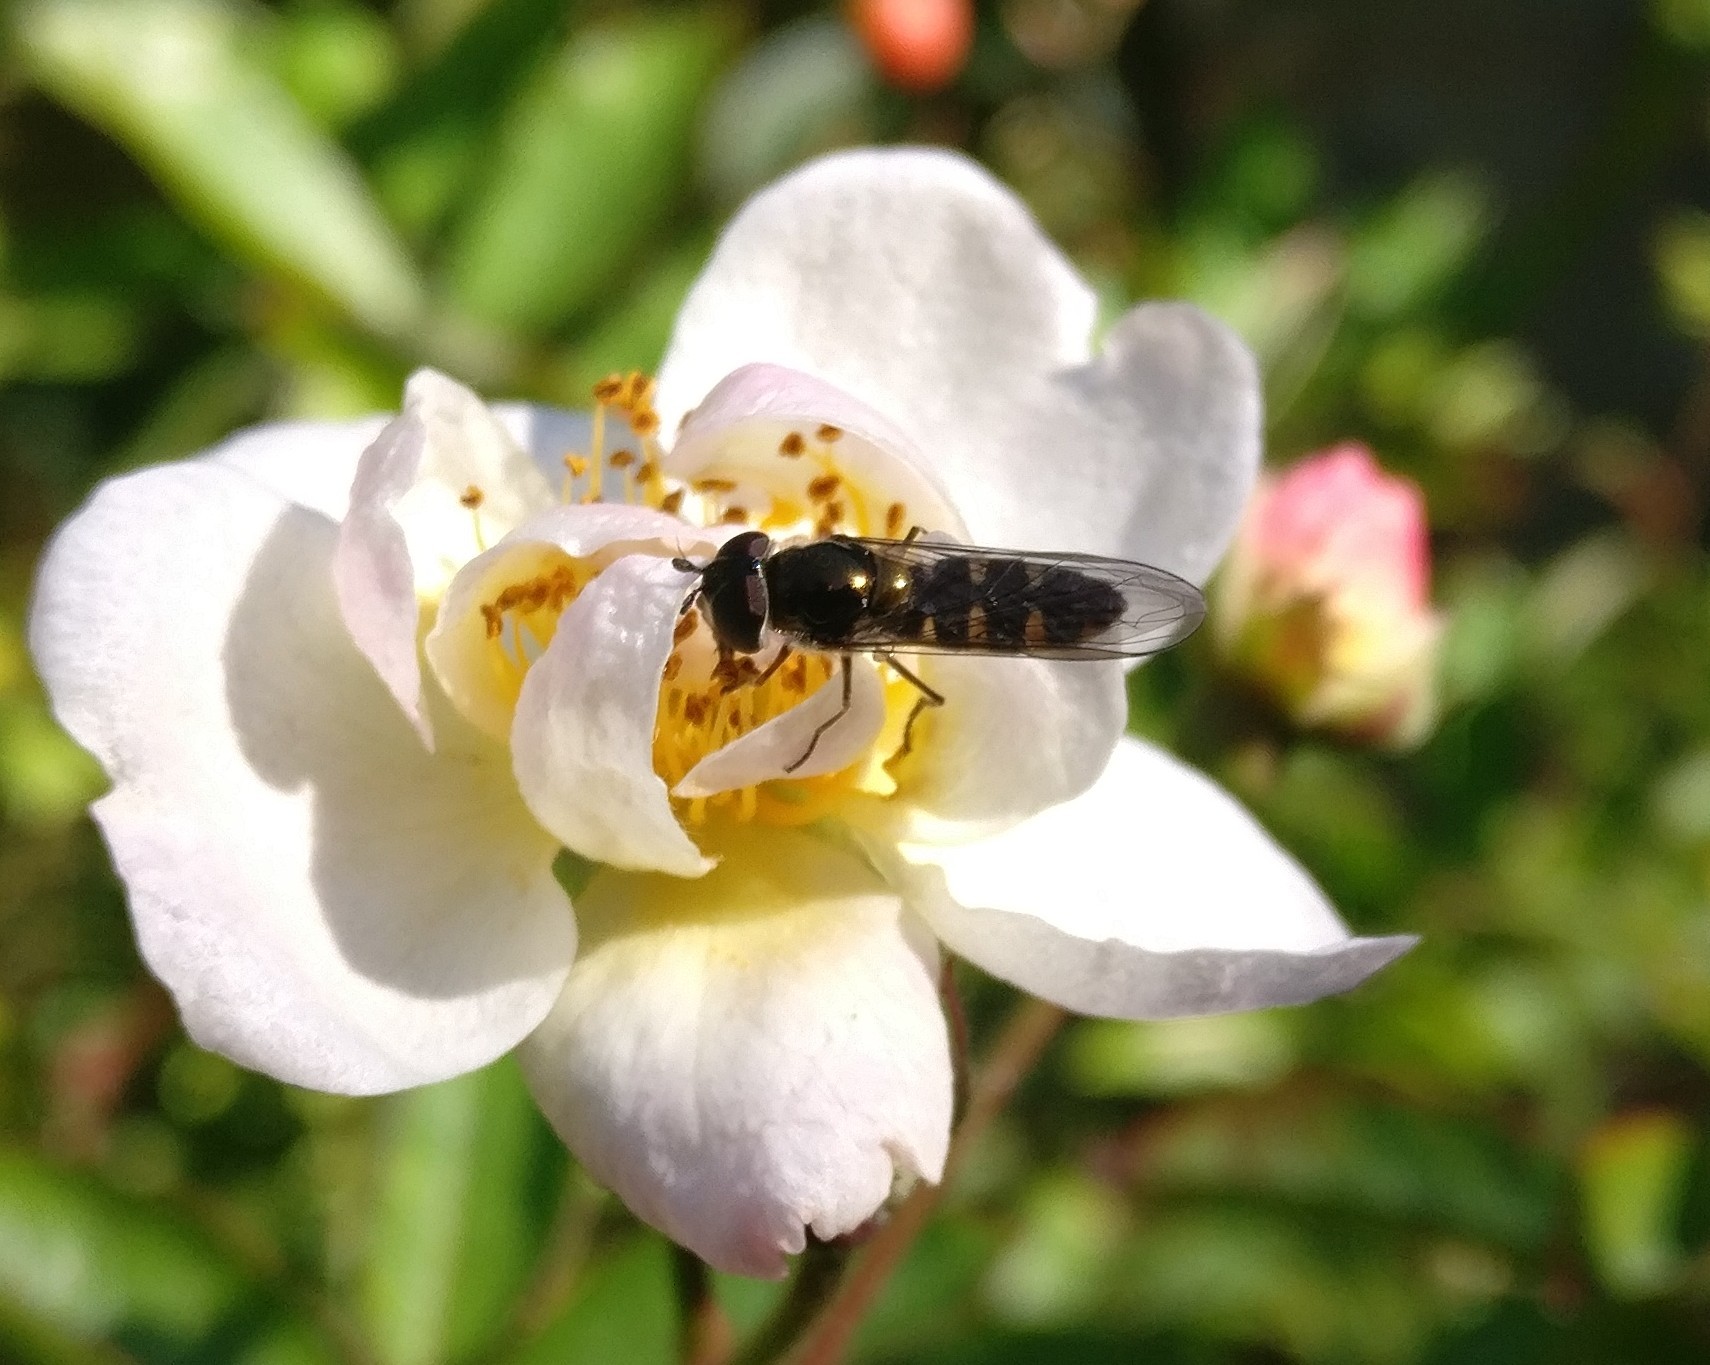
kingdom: Animalia
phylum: Arthropoda
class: Insecta
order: Diptera
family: Syrphidae
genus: Melangyna
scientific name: Melangyna novaezelandiae
